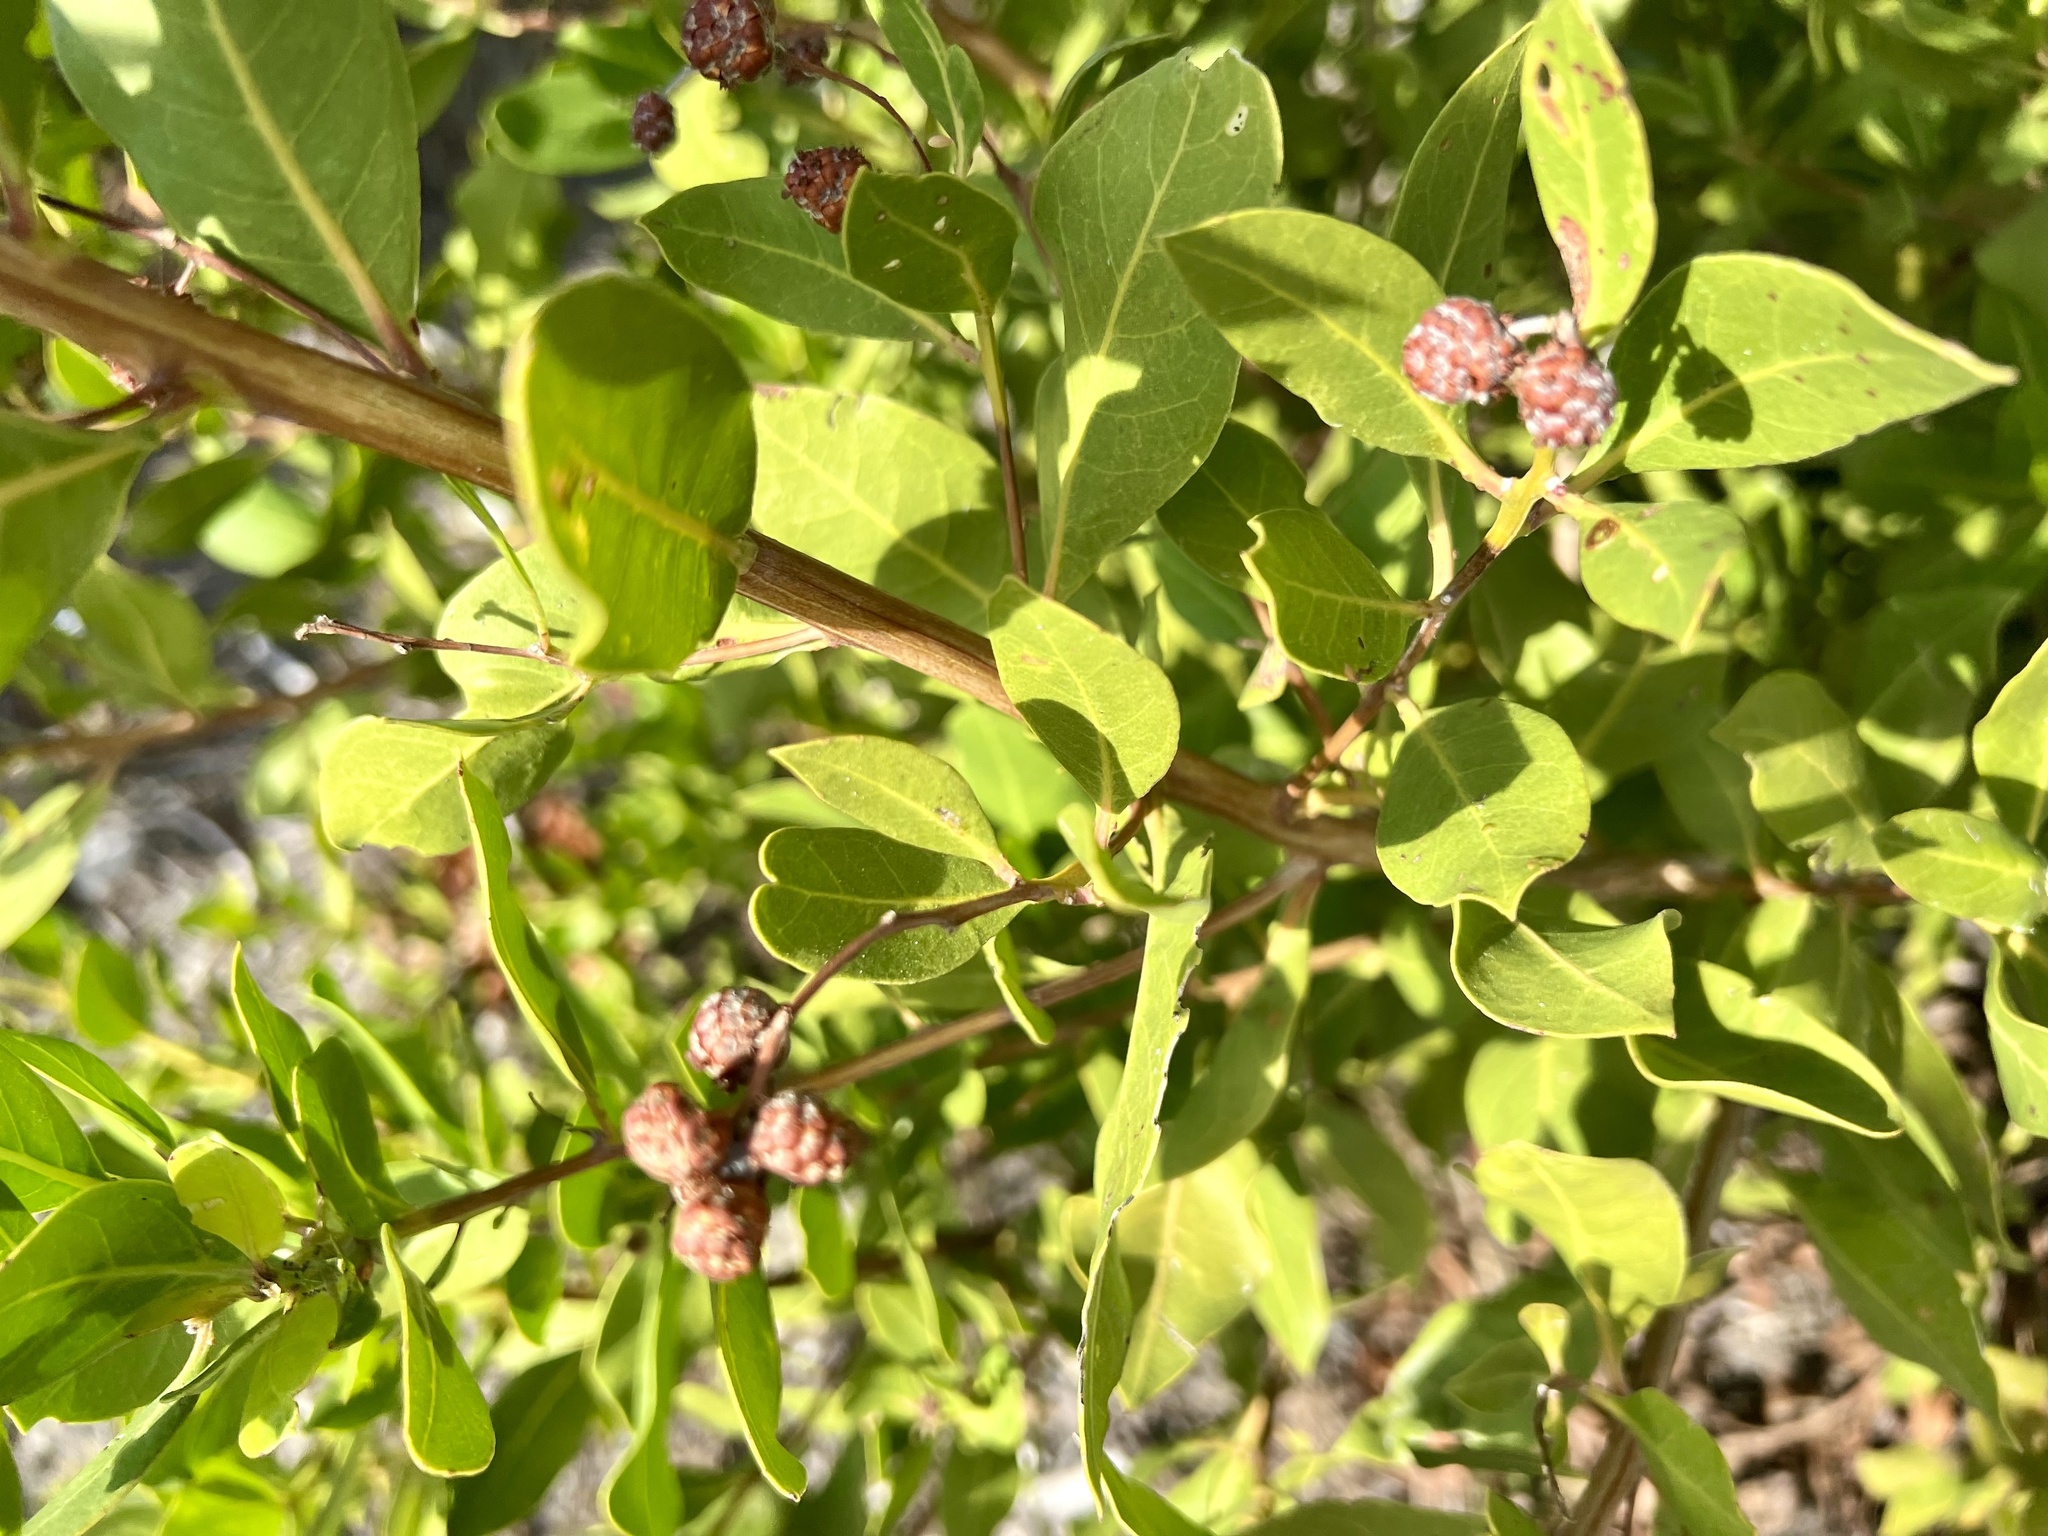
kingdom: Plantae
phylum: Tracheophyta
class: Magnoliopsida
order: Myrtales
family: Combretaceae
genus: Conocarpus
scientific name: Conocarpus erectus
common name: Button mangrove
